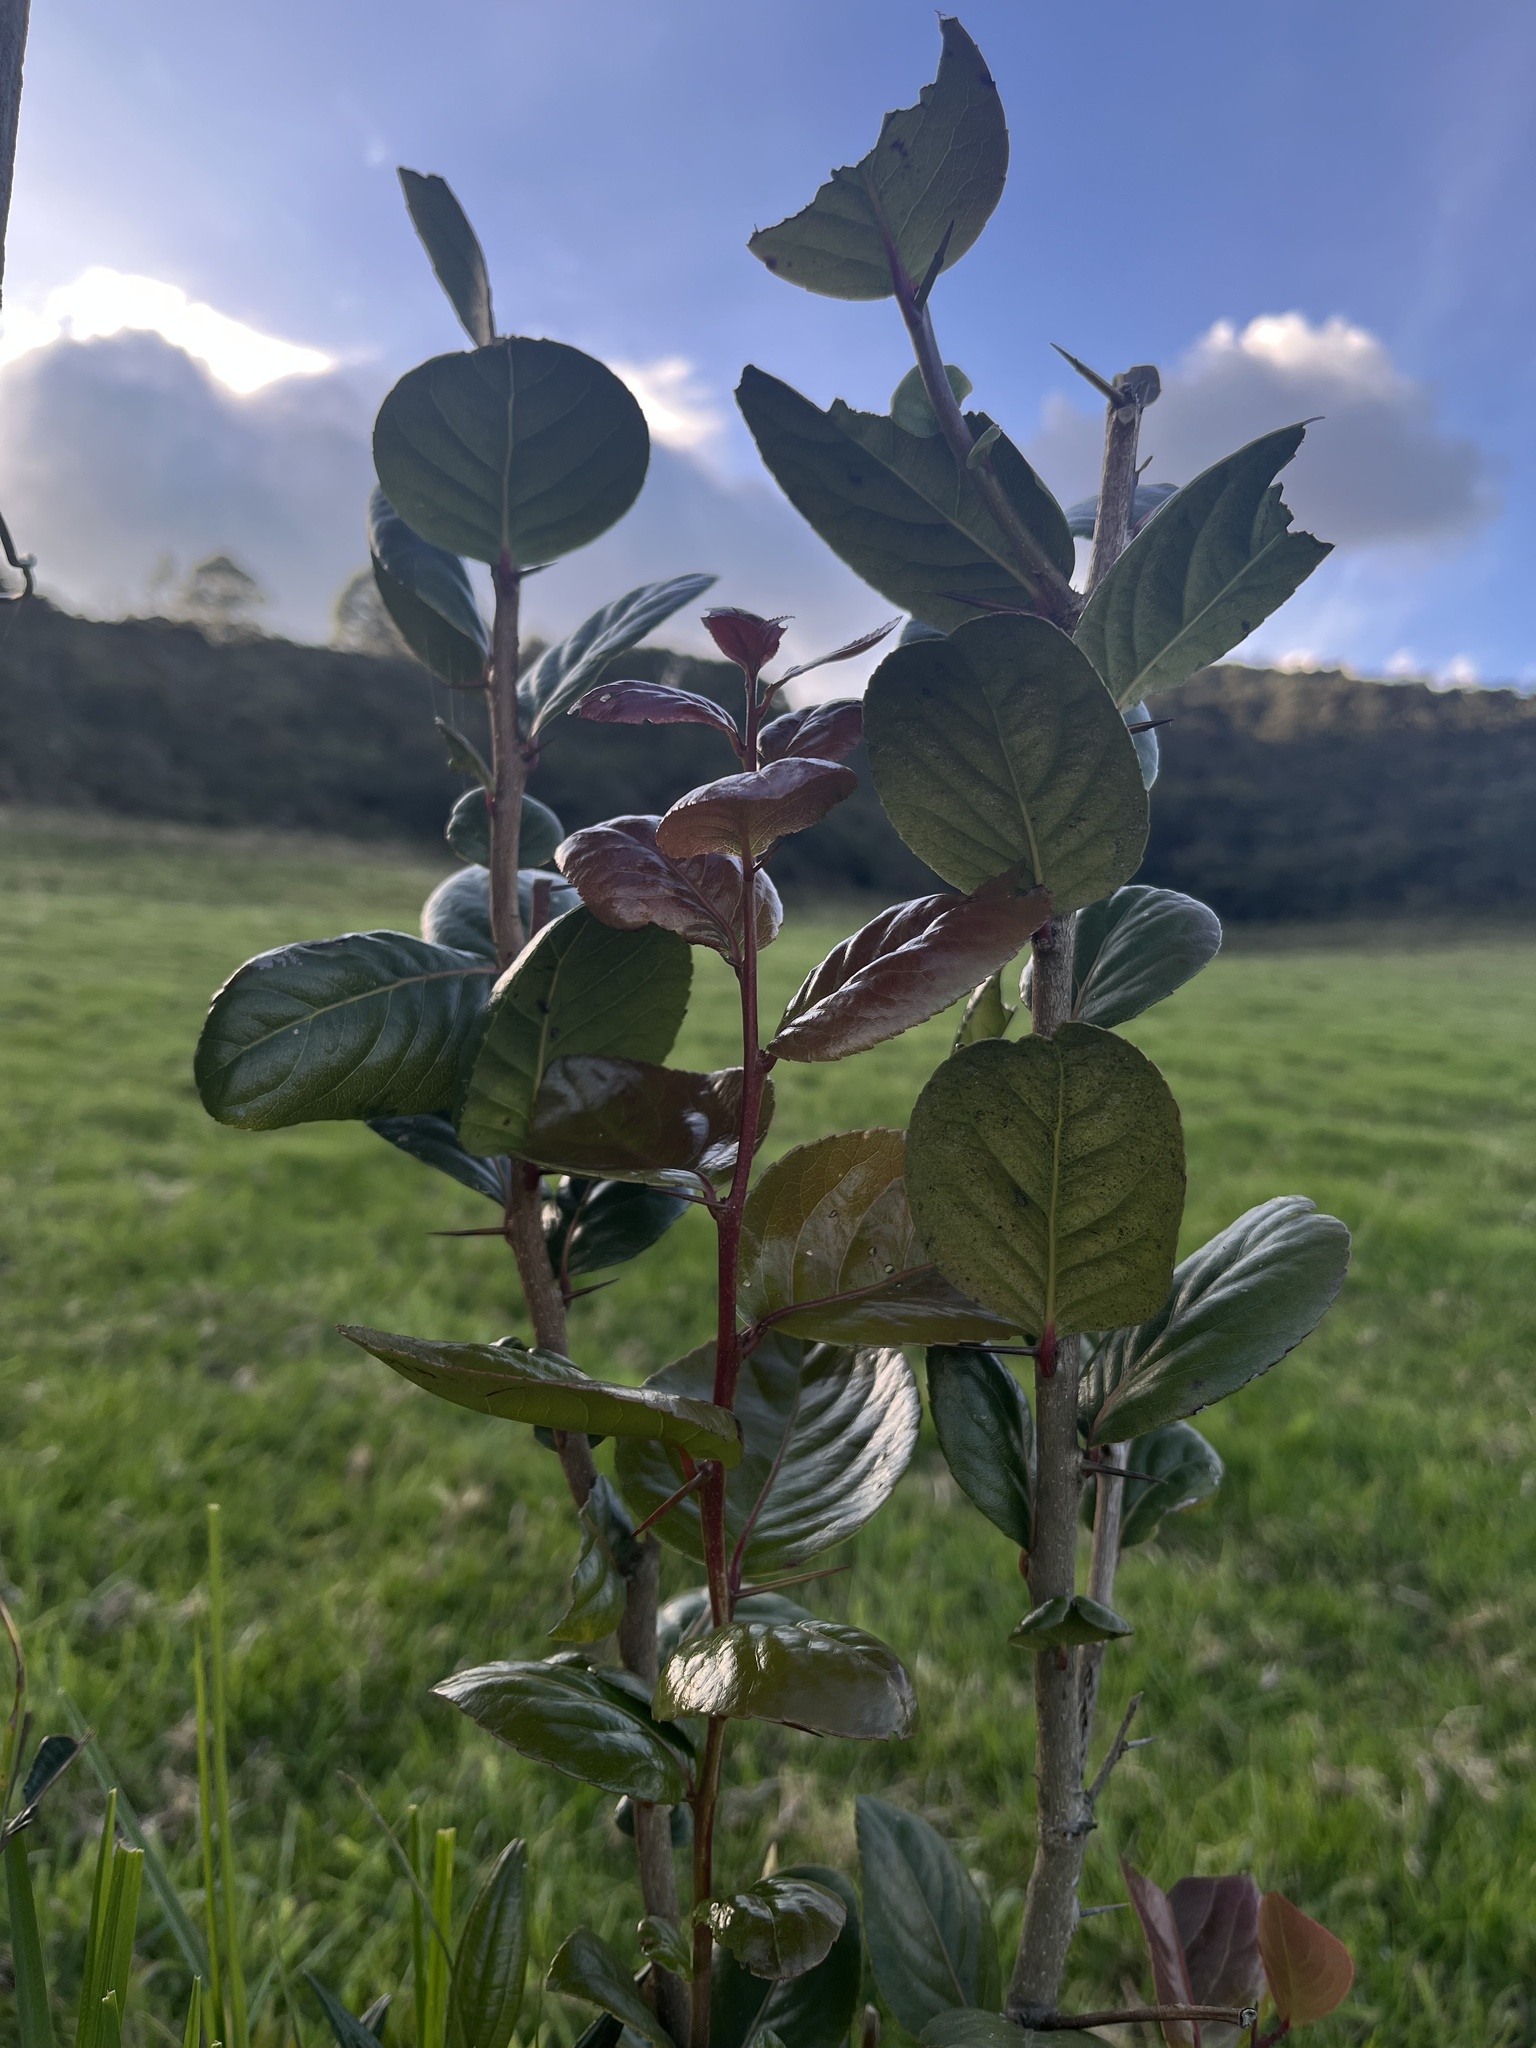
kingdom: Plantae
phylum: Tracheophyta
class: Magnoliopsida
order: Malpighiales
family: Salicaceae
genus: Xylosma
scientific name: Xylosma spiculifera
